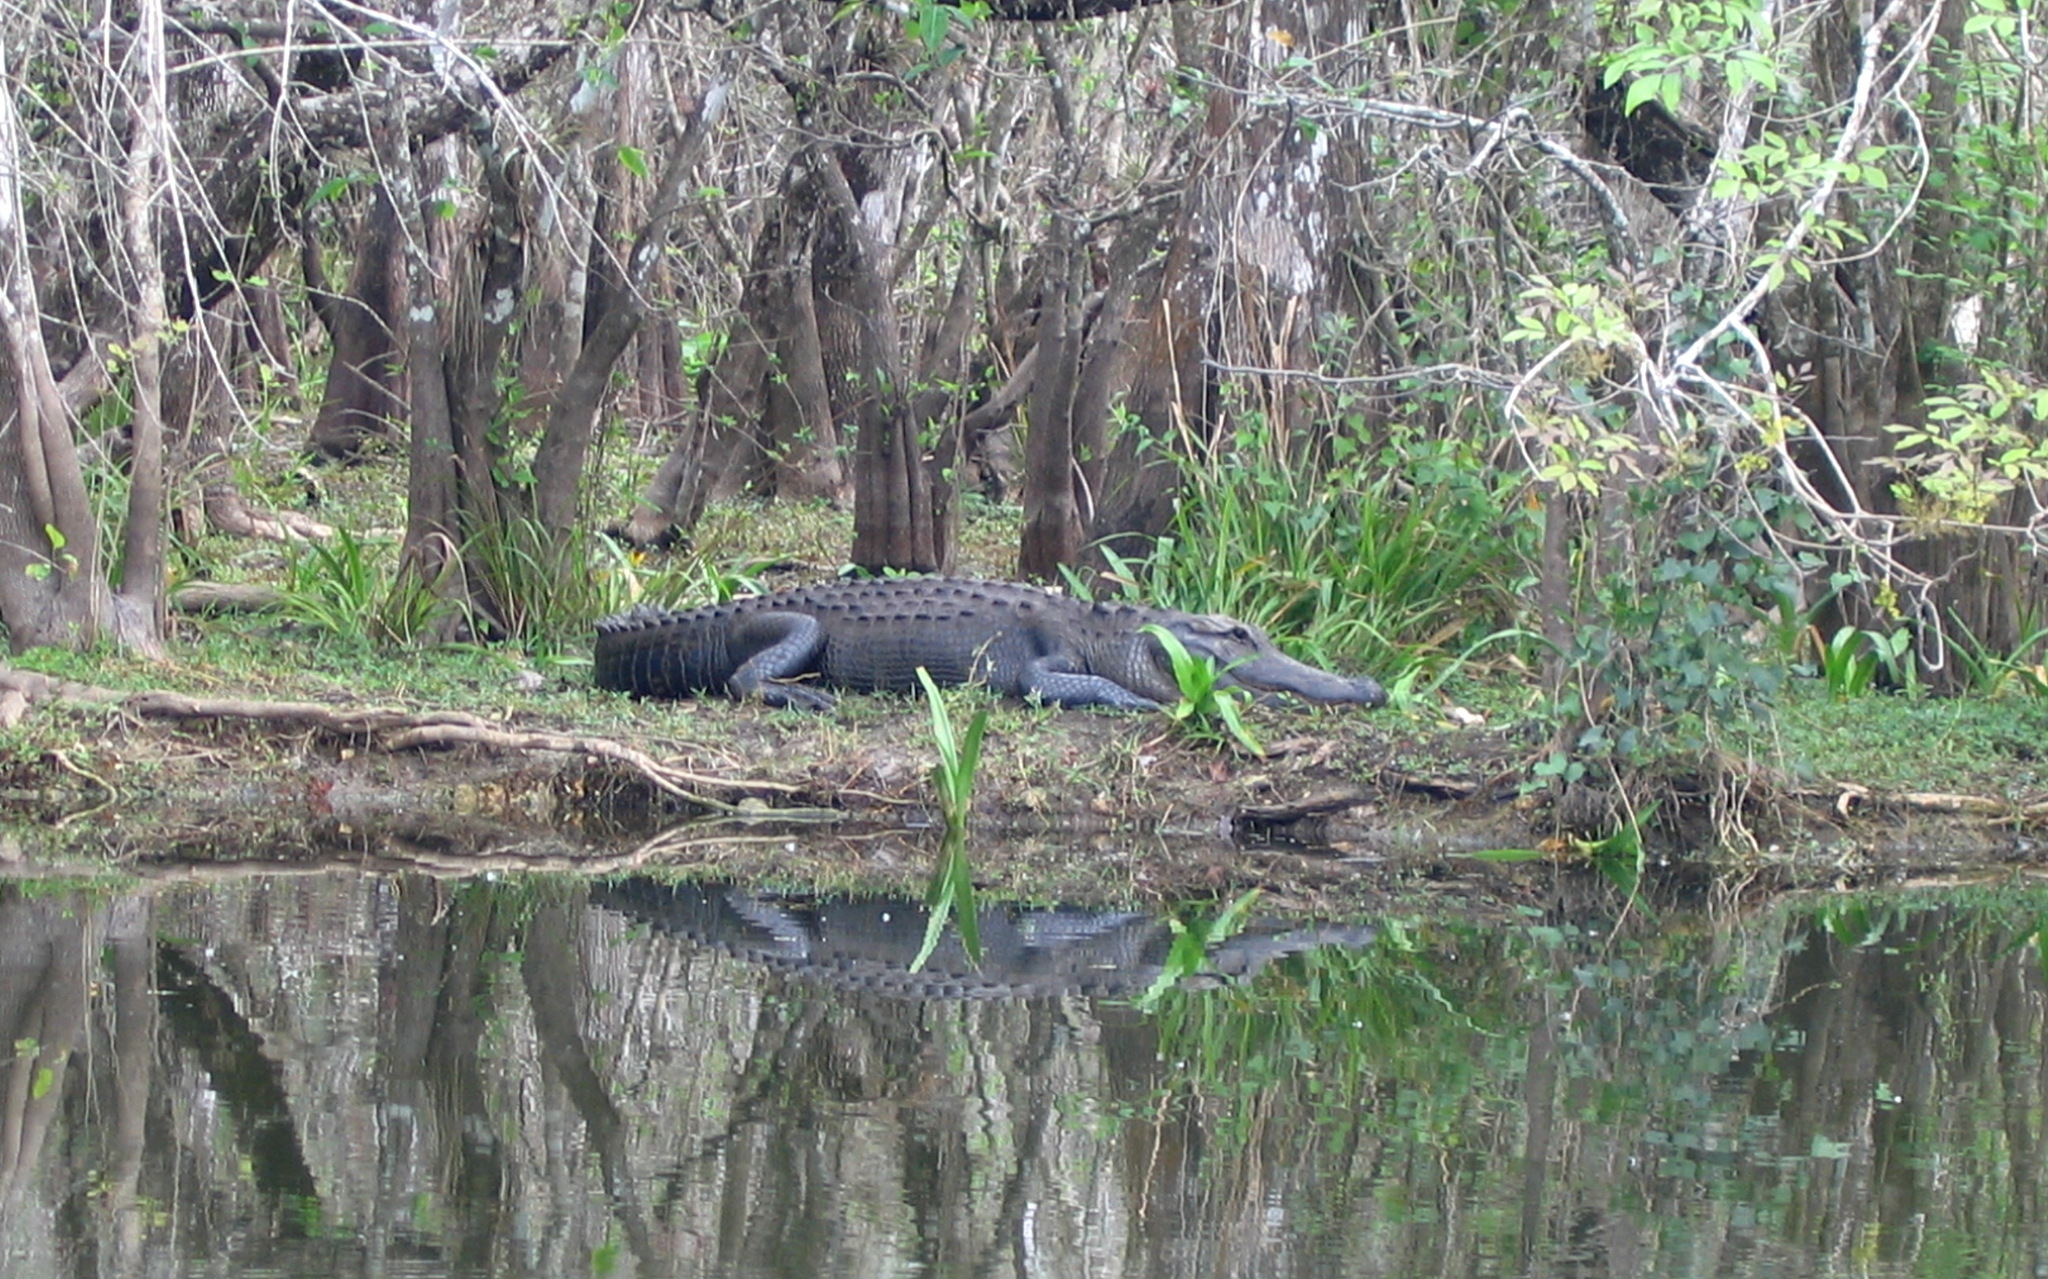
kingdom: Animalia
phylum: Chordata
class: Crocodylia
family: Alligatoridae
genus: Alligator
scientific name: Alligator mississippiensis
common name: American alligator
